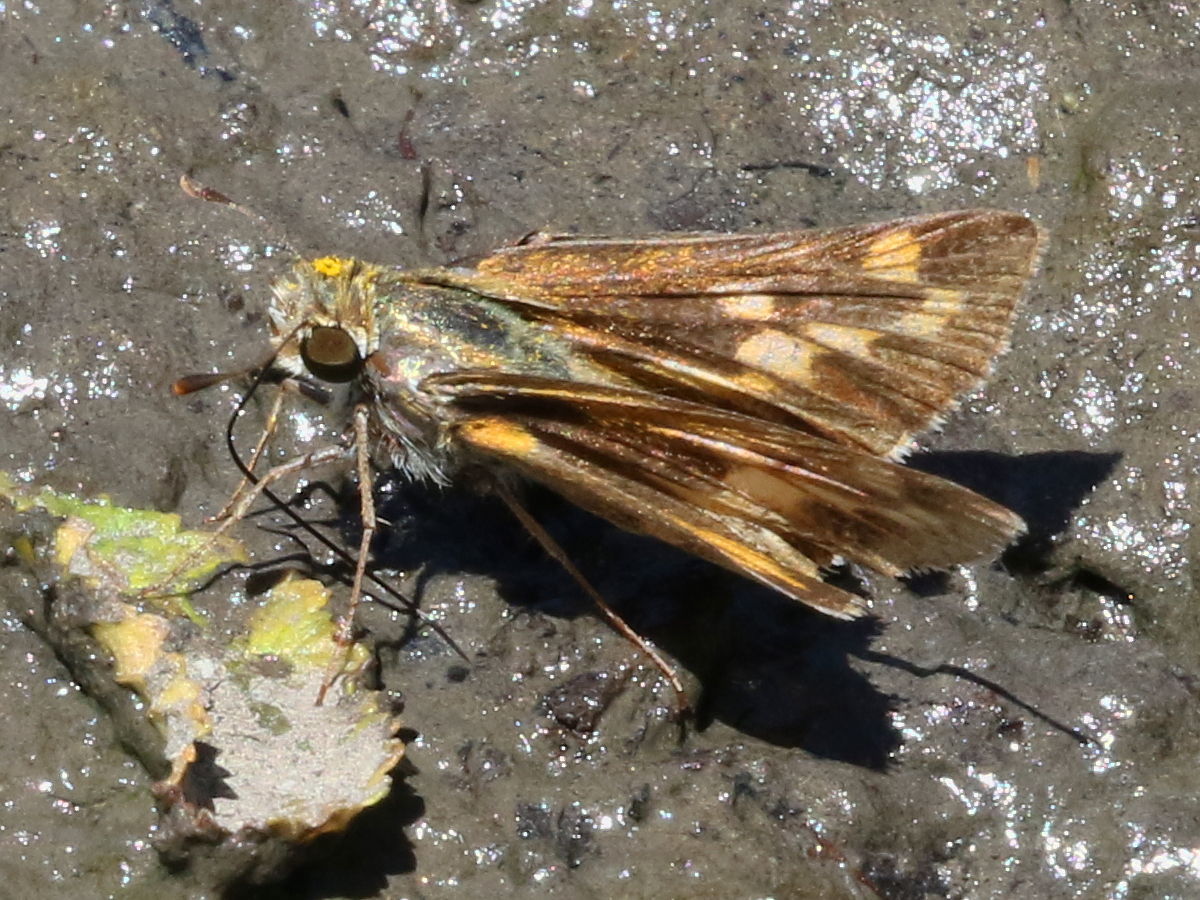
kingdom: Animalia
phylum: Arthropoda
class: Insecta
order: Lepidoptera
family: Hesperiidae
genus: Atalopedes
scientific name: Atalopedes
